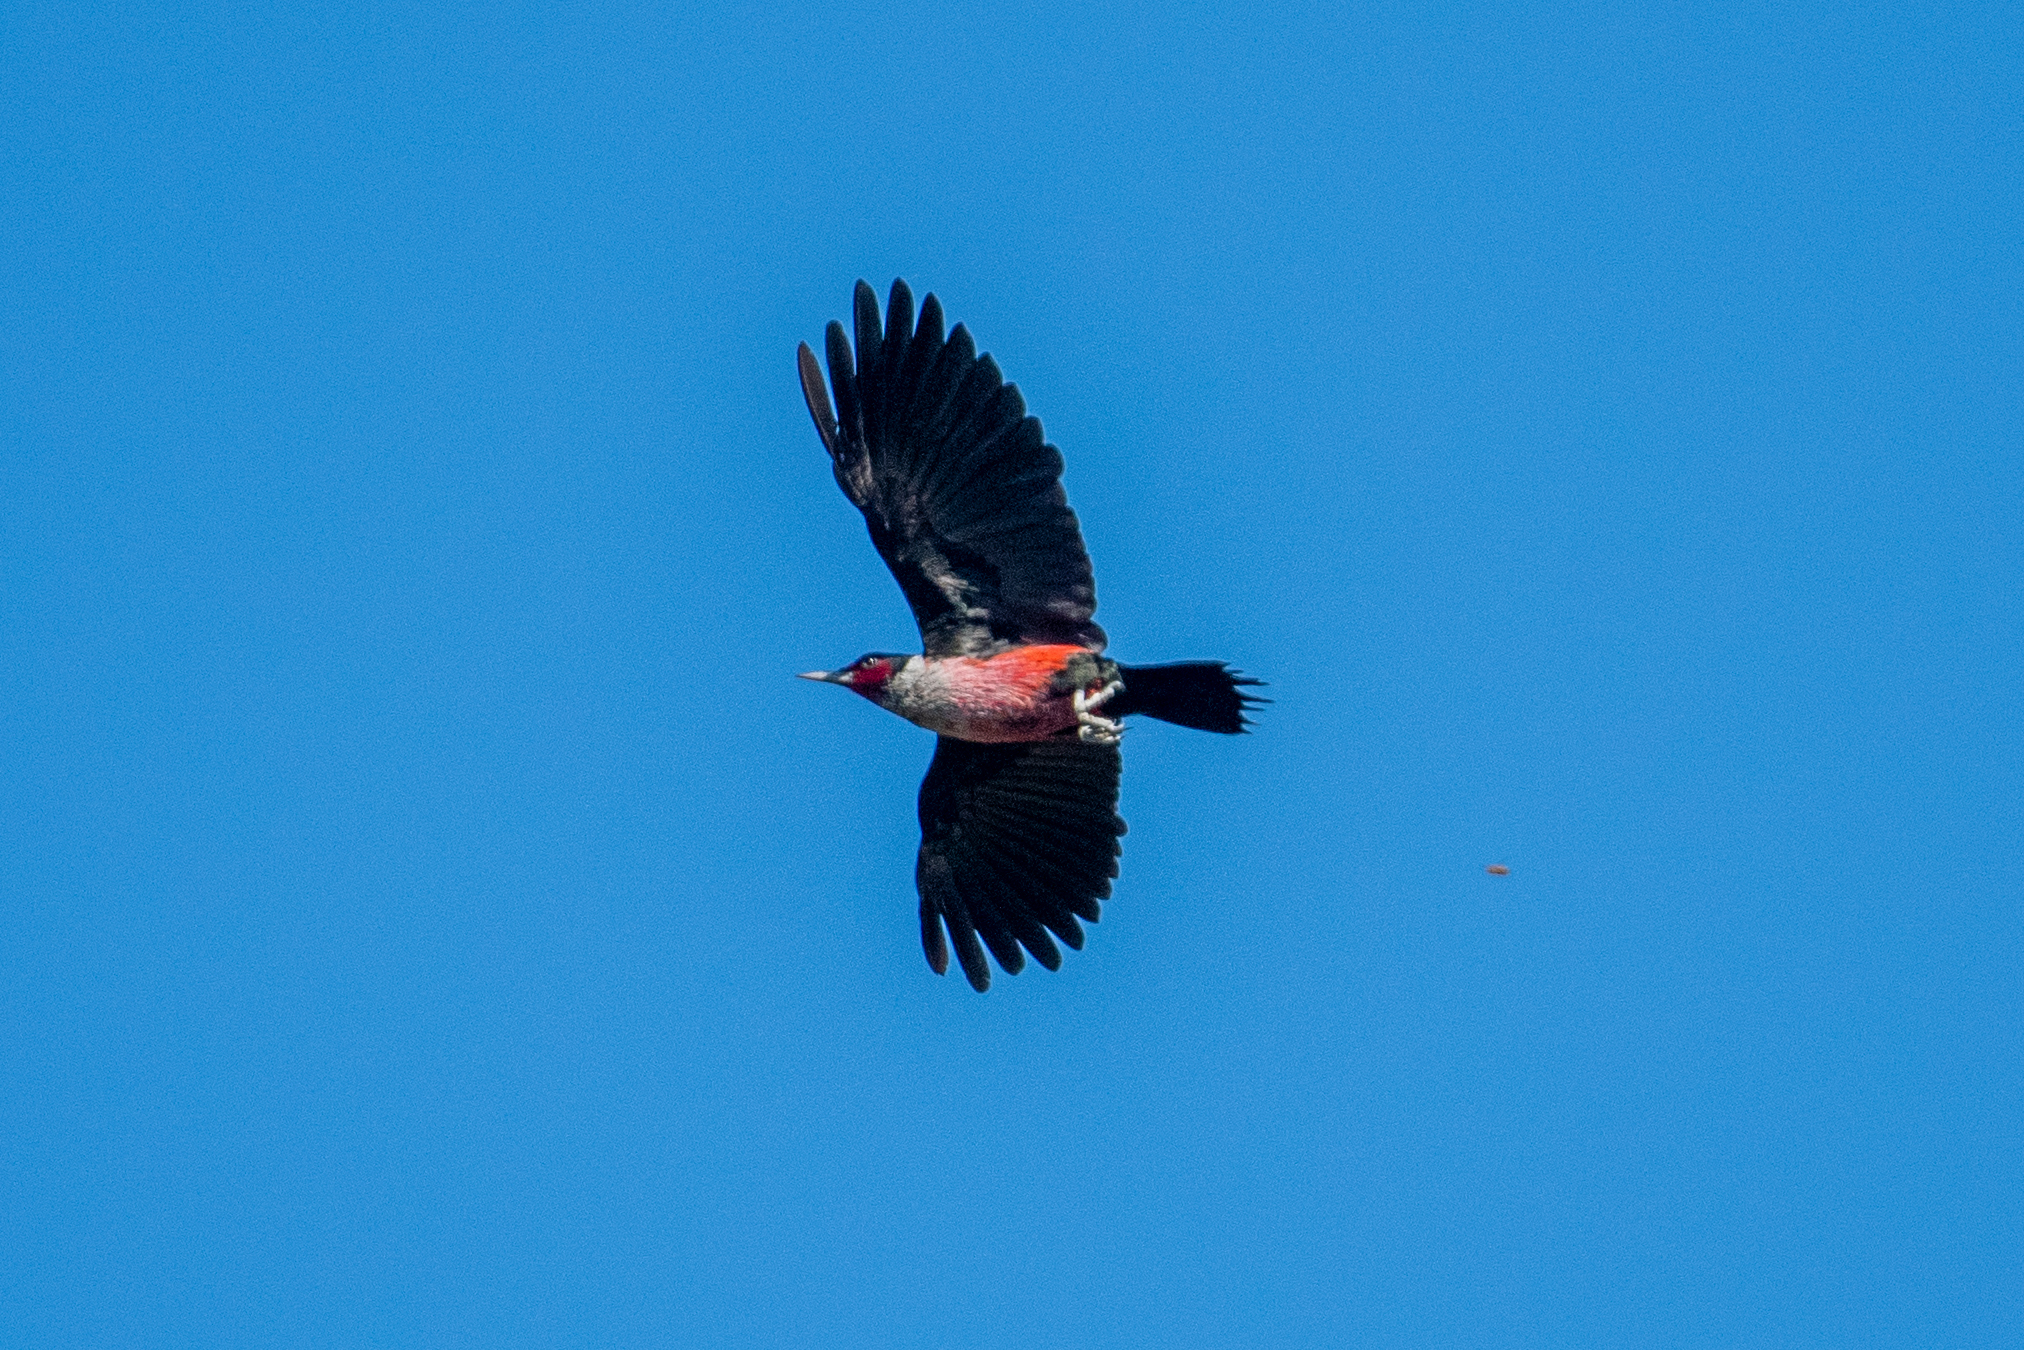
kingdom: Animalia
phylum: Chordata
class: Aves
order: Piciformes
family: Picidae
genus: Melanerpes
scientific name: Melanerpes lewis
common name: Lewis's woodpecker
